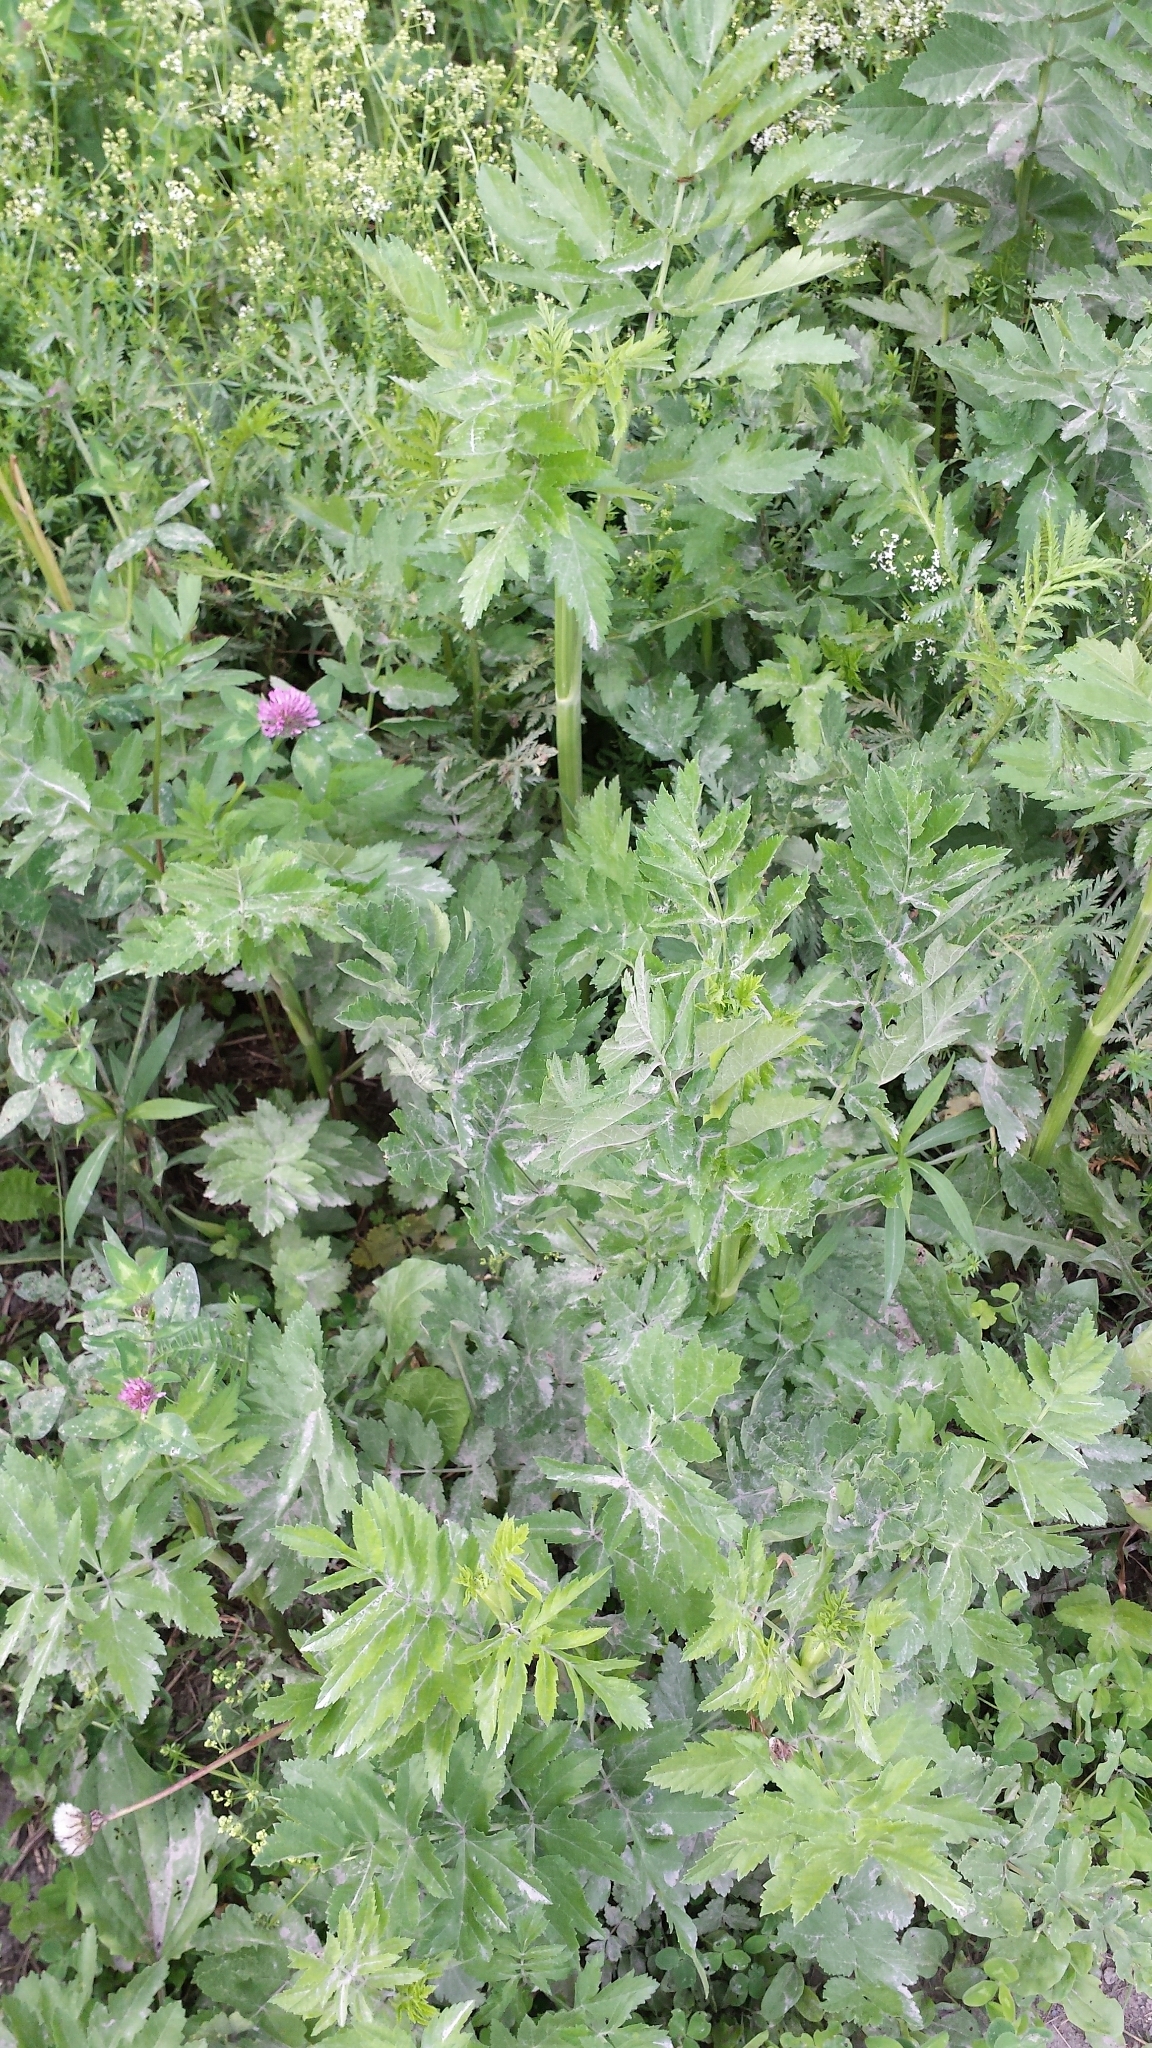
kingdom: Plantae
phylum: Tracheophyta
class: Magnoliopsida
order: Apiales
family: Apiaceae
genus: Pastinaca
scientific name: Pastinaca sativa
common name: Wild parsnip
